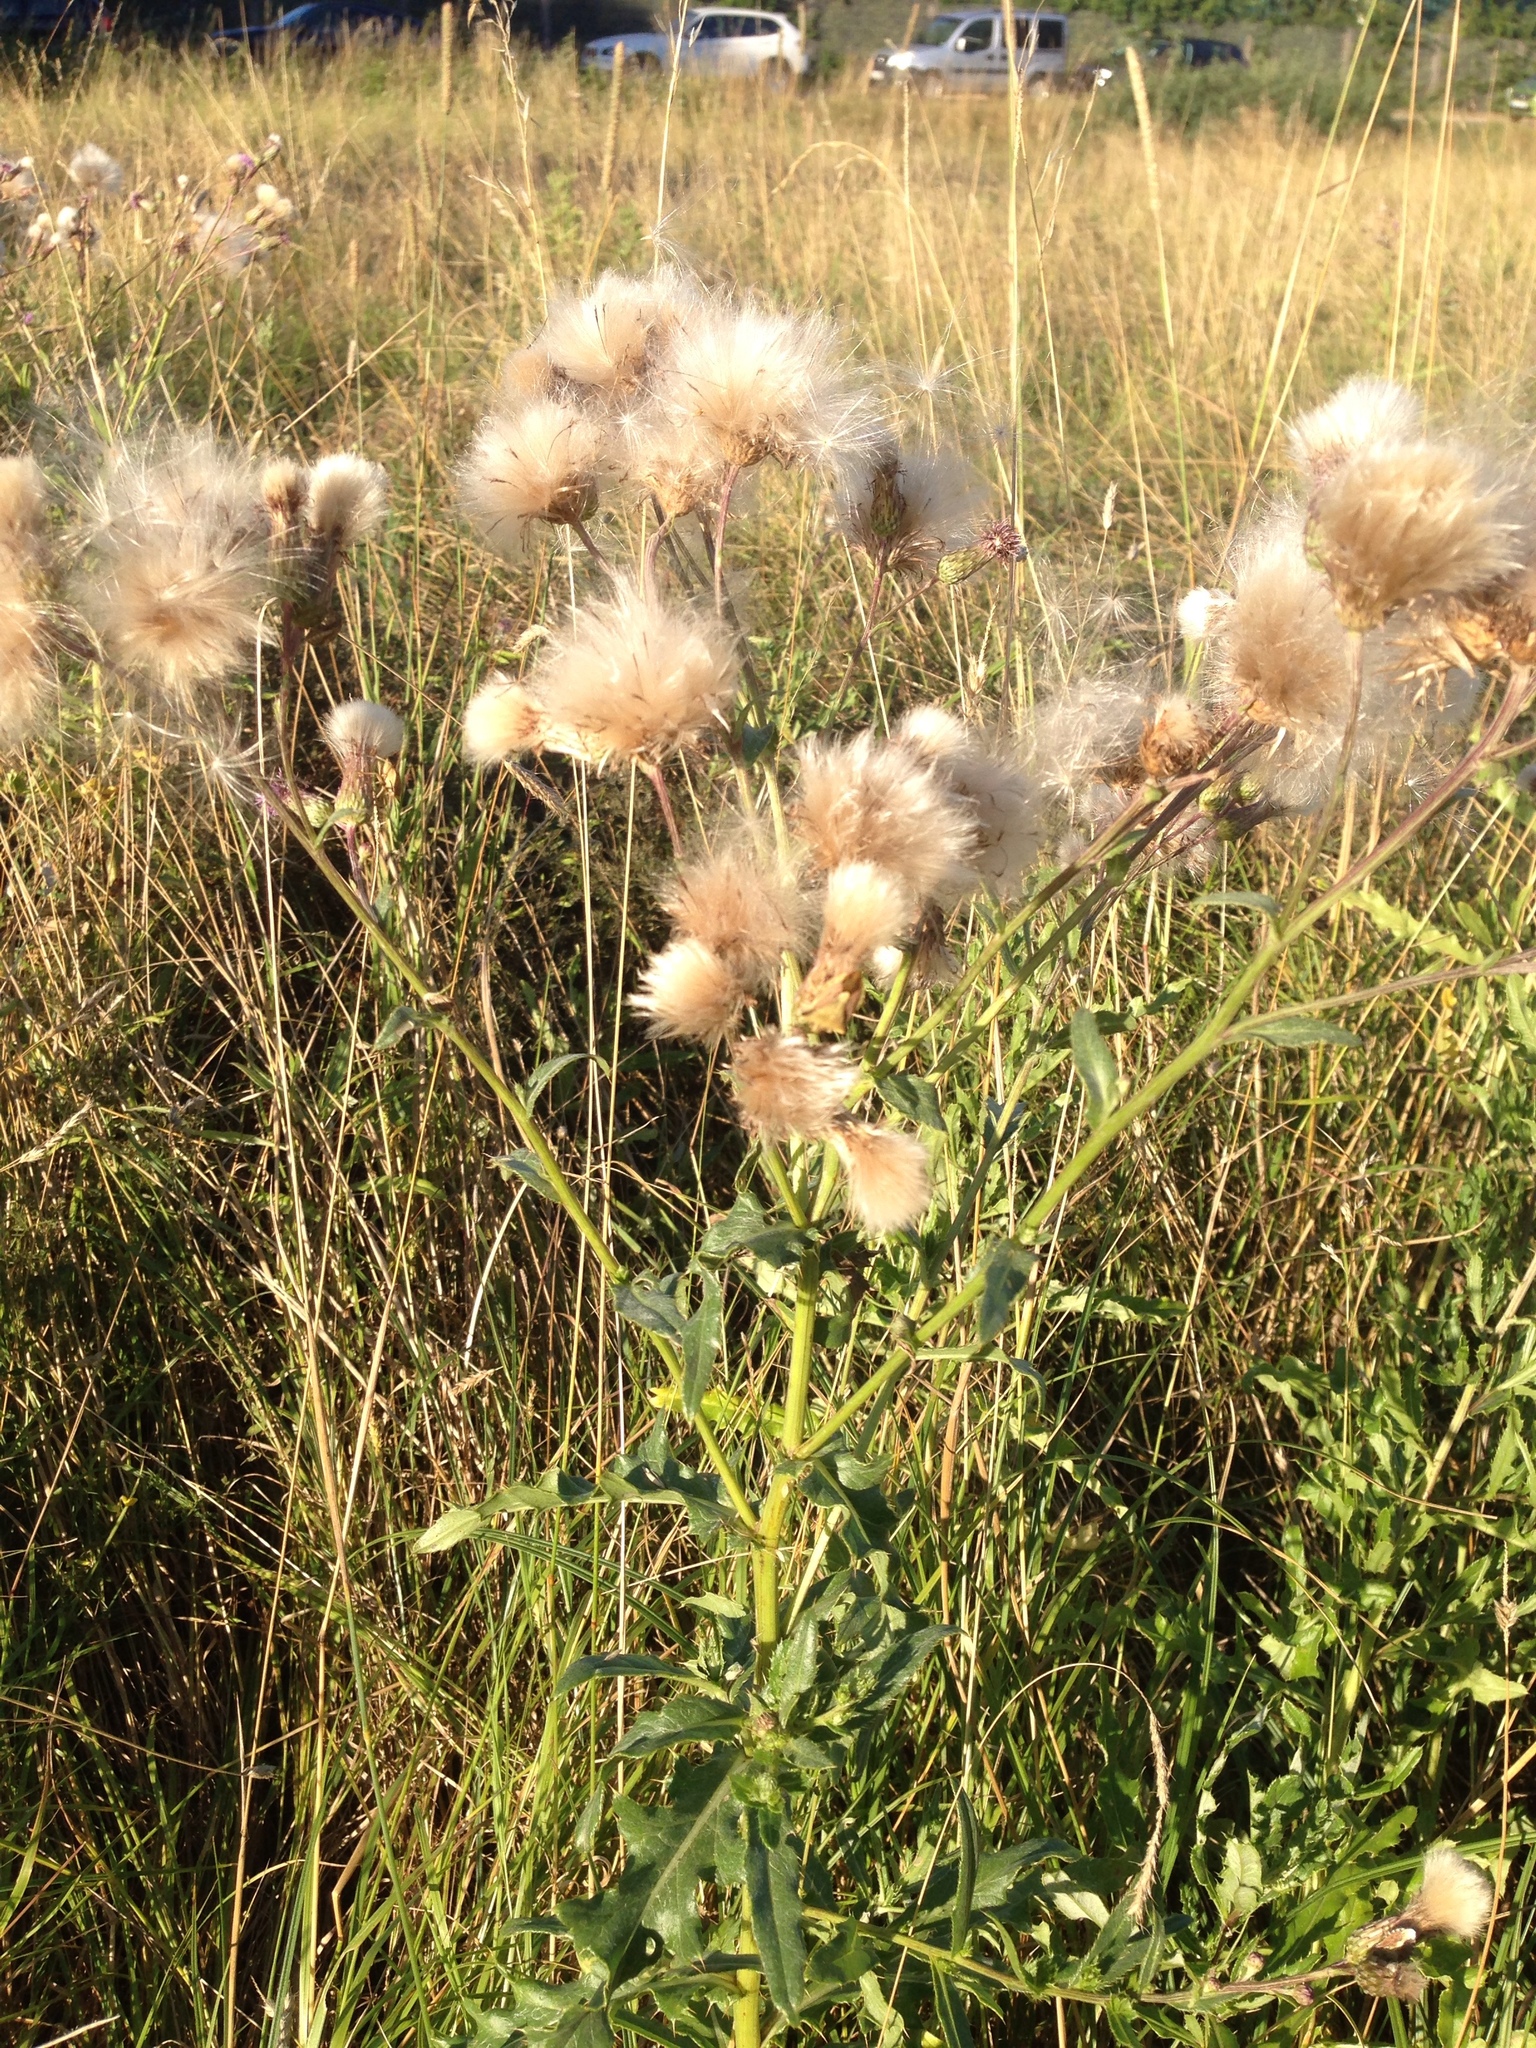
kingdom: Plantae
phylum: Tracheophyta
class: Magnoliopsida
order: Asterales
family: Asteraceae
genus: Cirsium
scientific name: Cirsium arvense
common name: Creeping thistle
